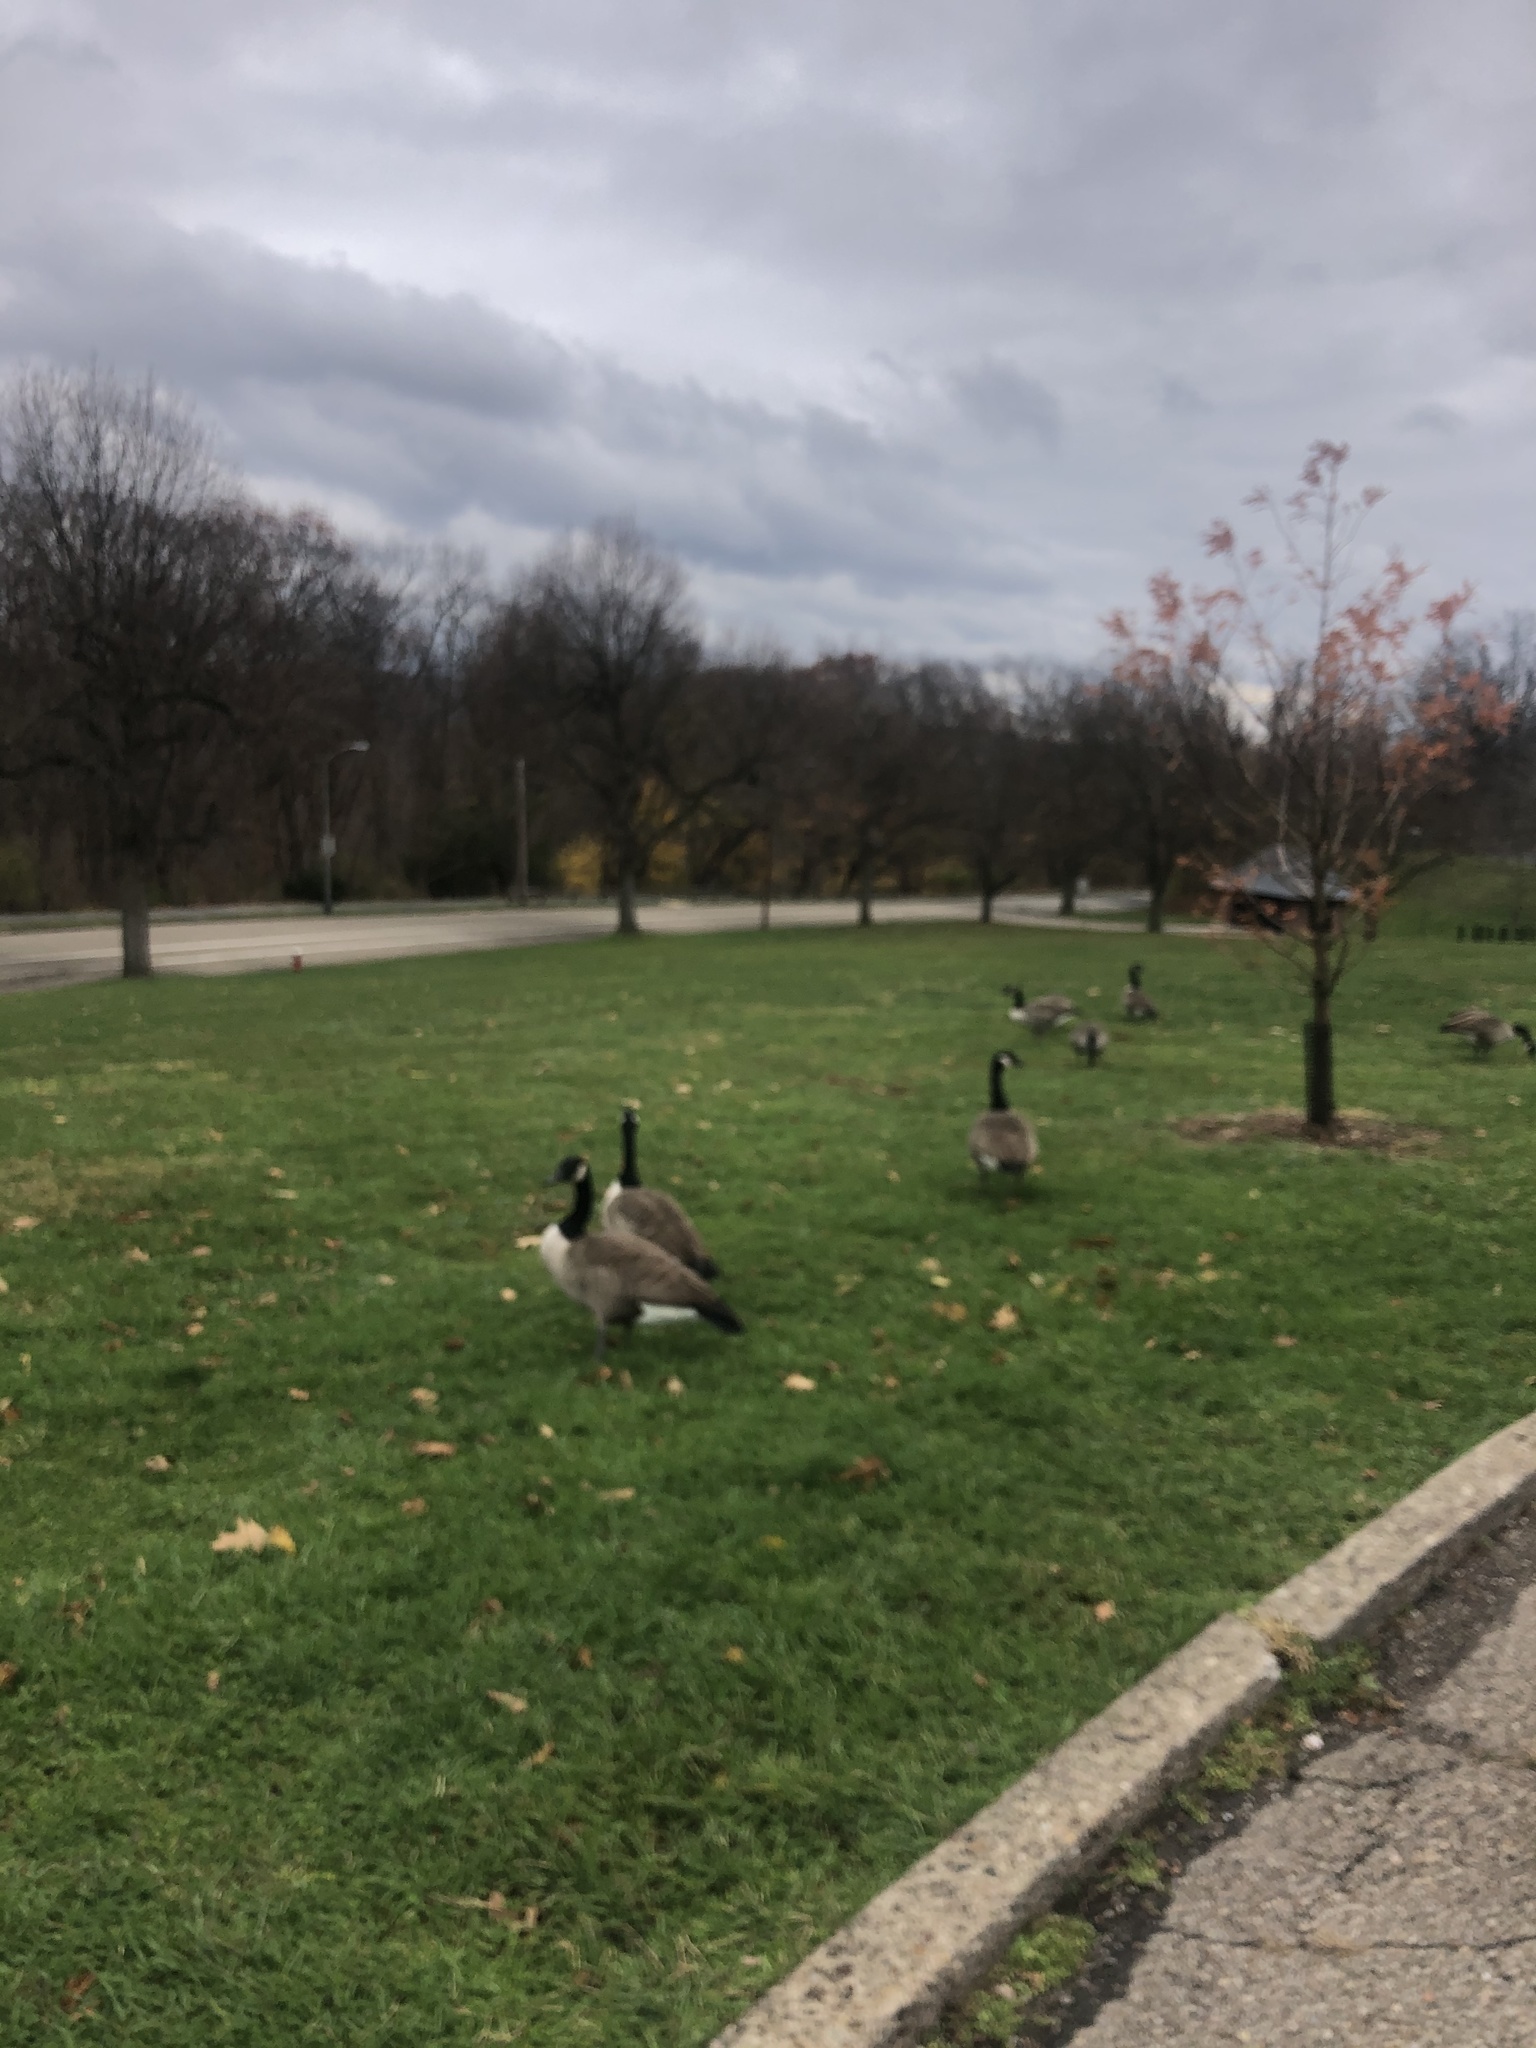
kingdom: Animalia
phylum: Chordata
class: Aves
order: Anseriformes
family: Anatidae
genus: Branta
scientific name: Branta canadensis
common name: Canada goose
